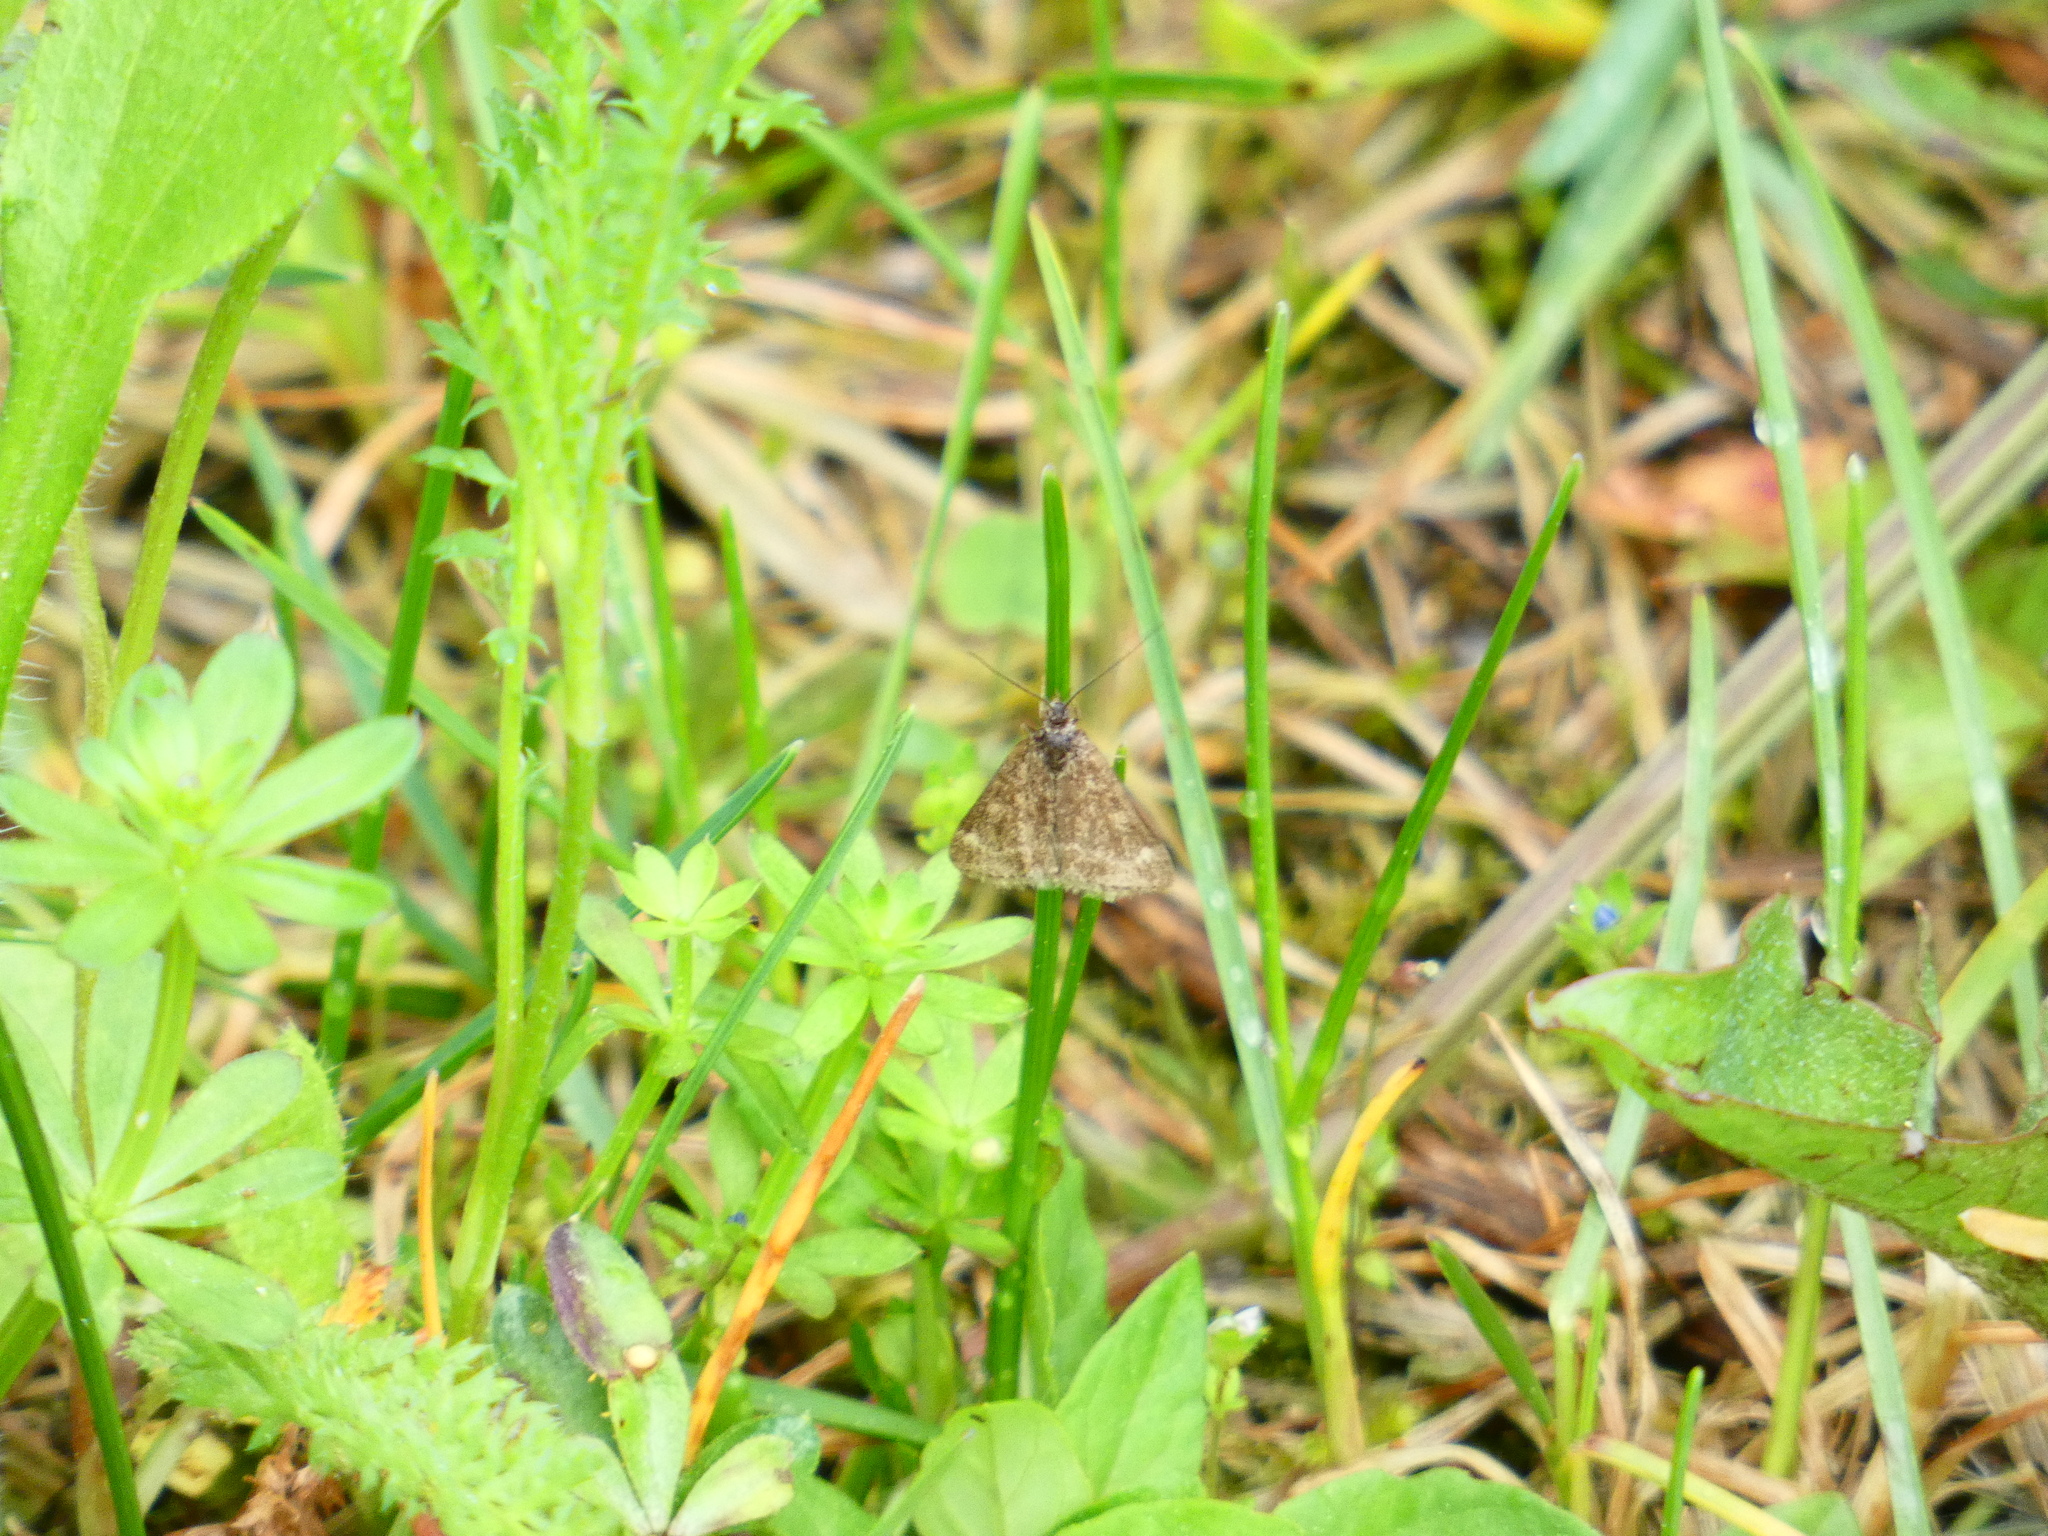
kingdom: Animalia
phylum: Arthropoda
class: Insecta
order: Lepidoptera
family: Crambidae
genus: Pyrausta
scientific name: Pyrausta despicata
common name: Straw-barred pearl
